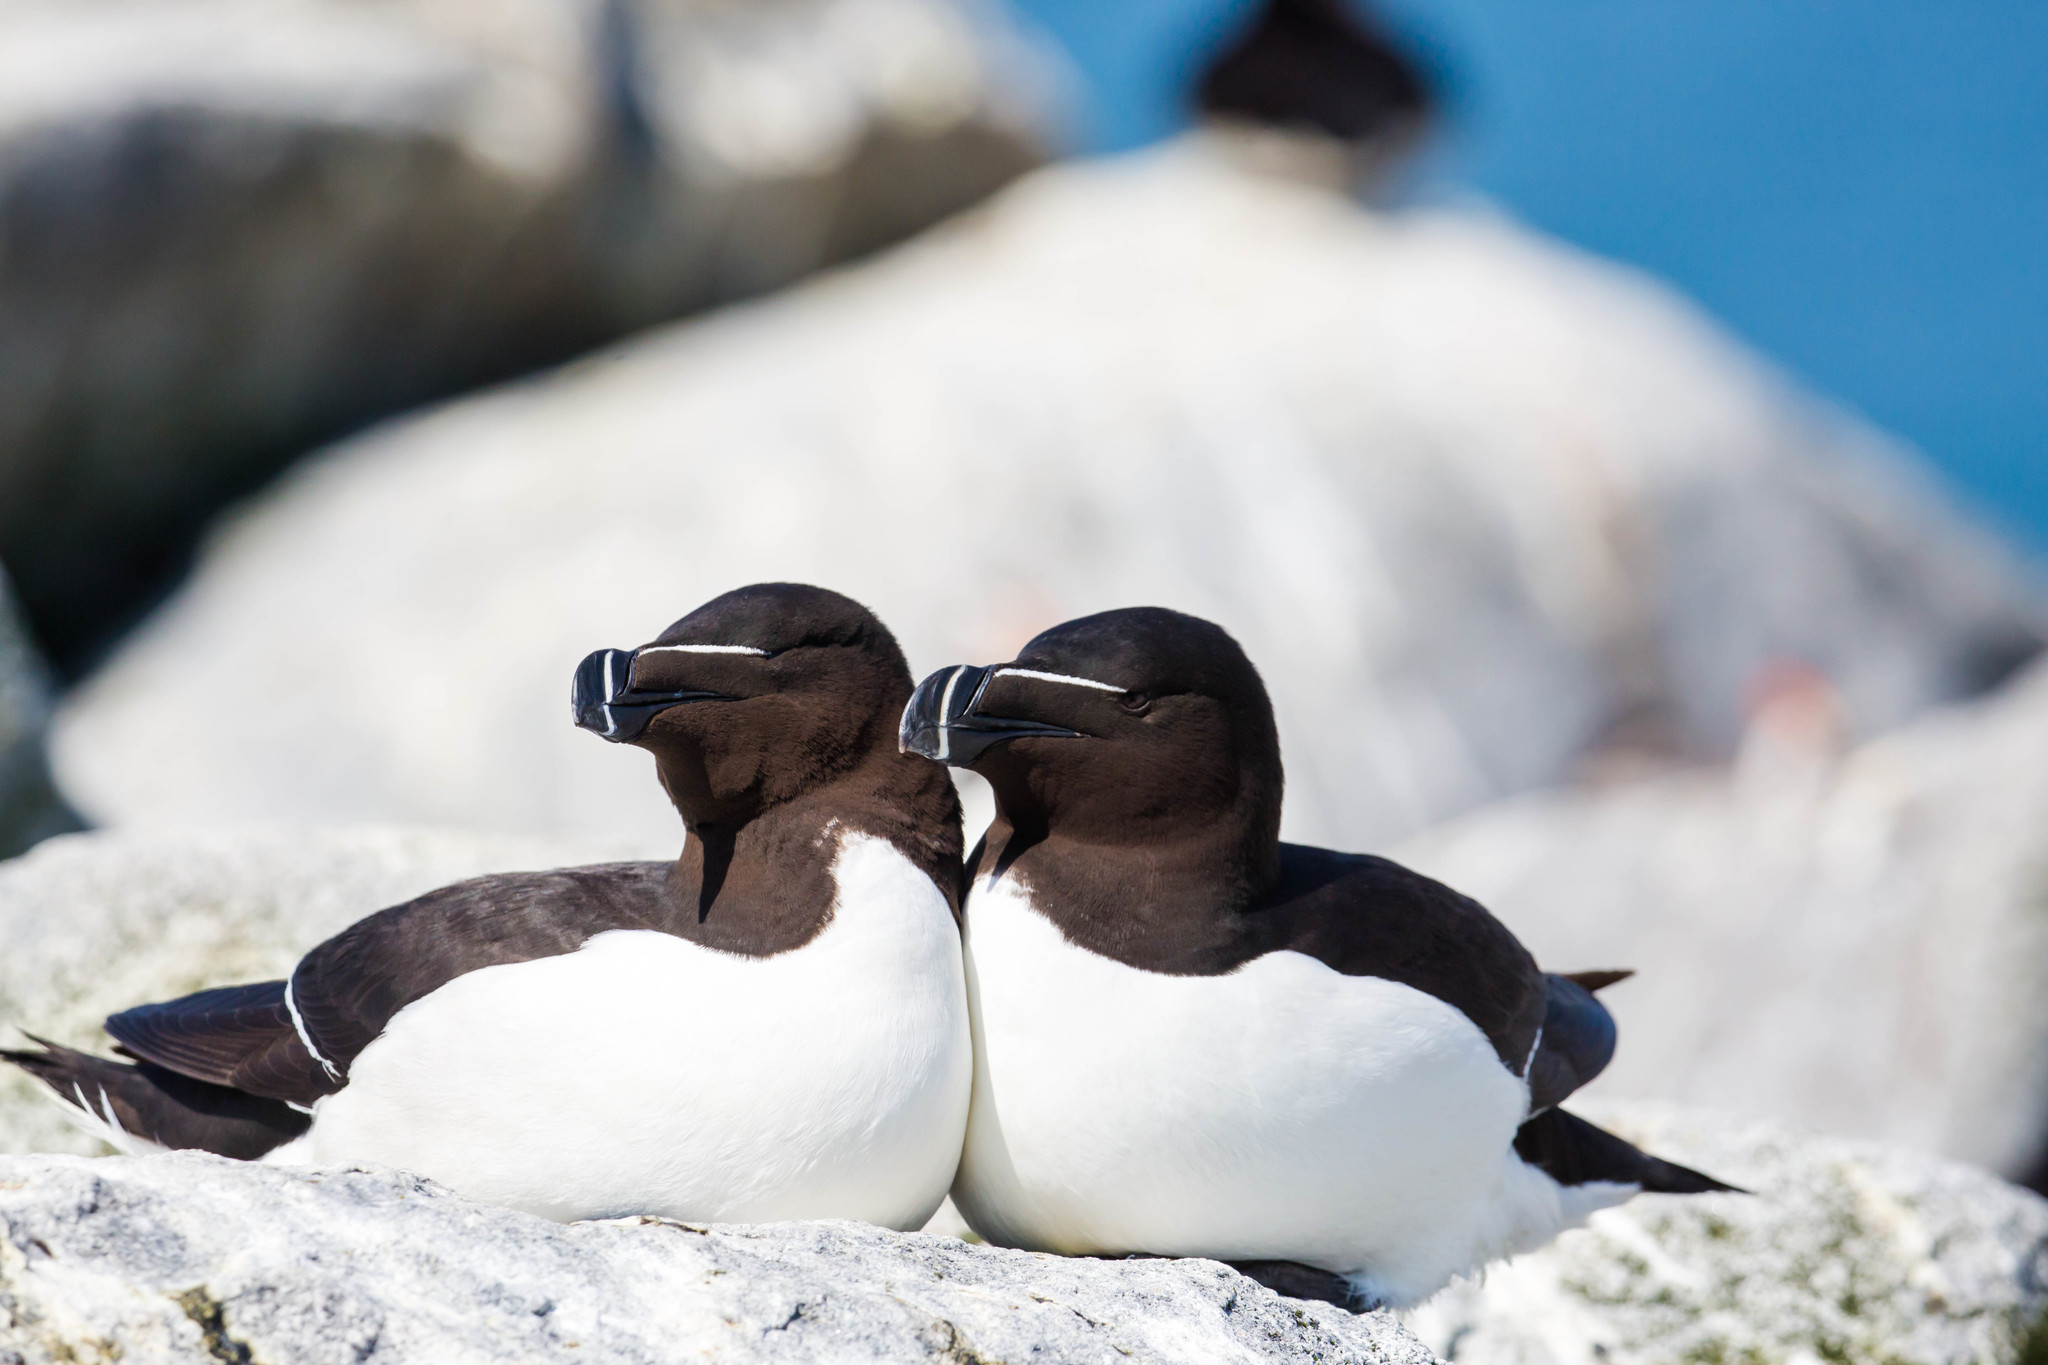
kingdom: Animalia
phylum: Chordata
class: Aves
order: Charadriiformes
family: Alcidae
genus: Alca
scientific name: Alca torda
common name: Razorbill
